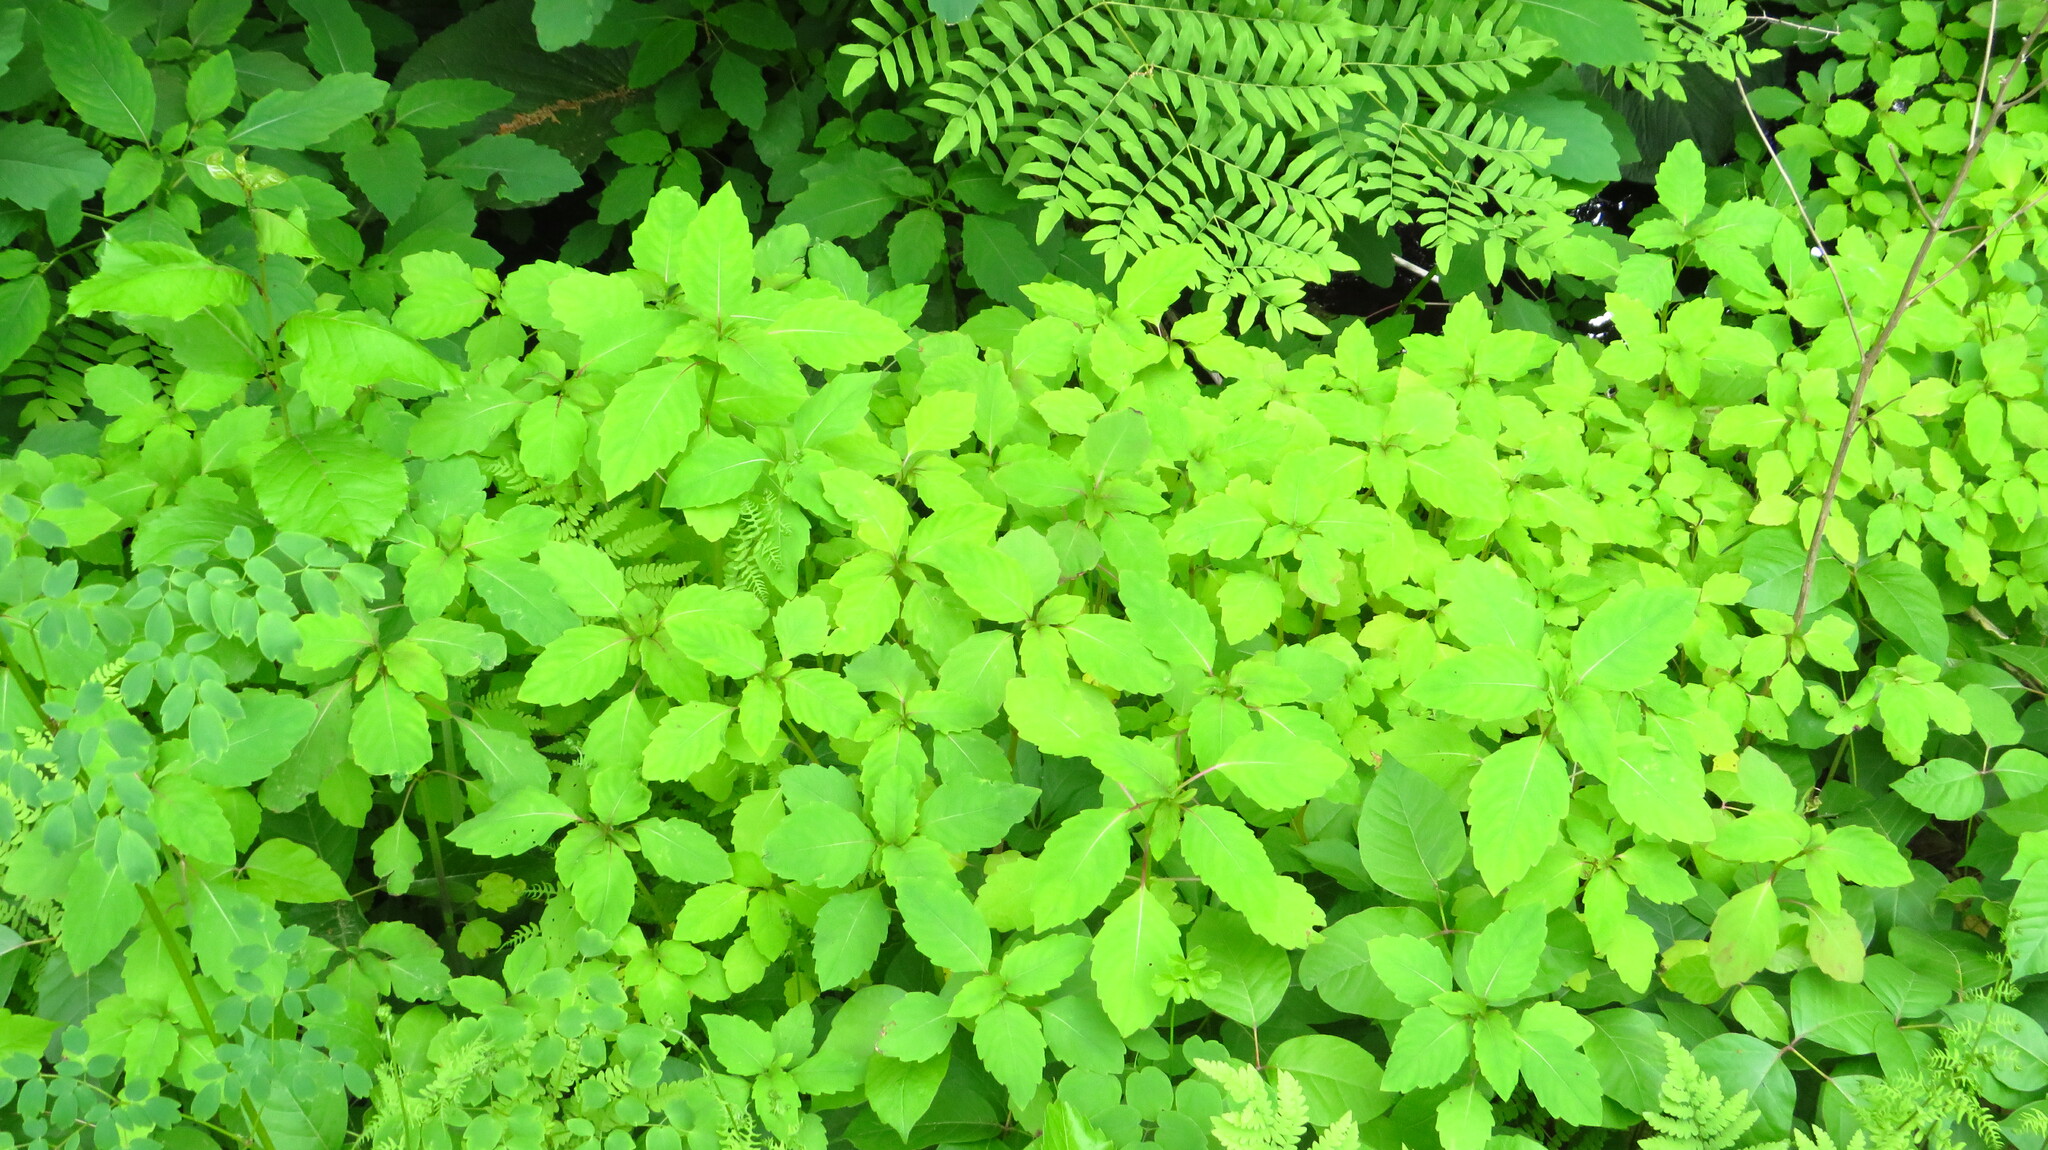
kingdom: Plantae
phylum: Tracheophyta
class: Magnoliopsida
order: Ericales
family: Balsaminaceae
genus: Impatiens
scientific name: Impatiens
